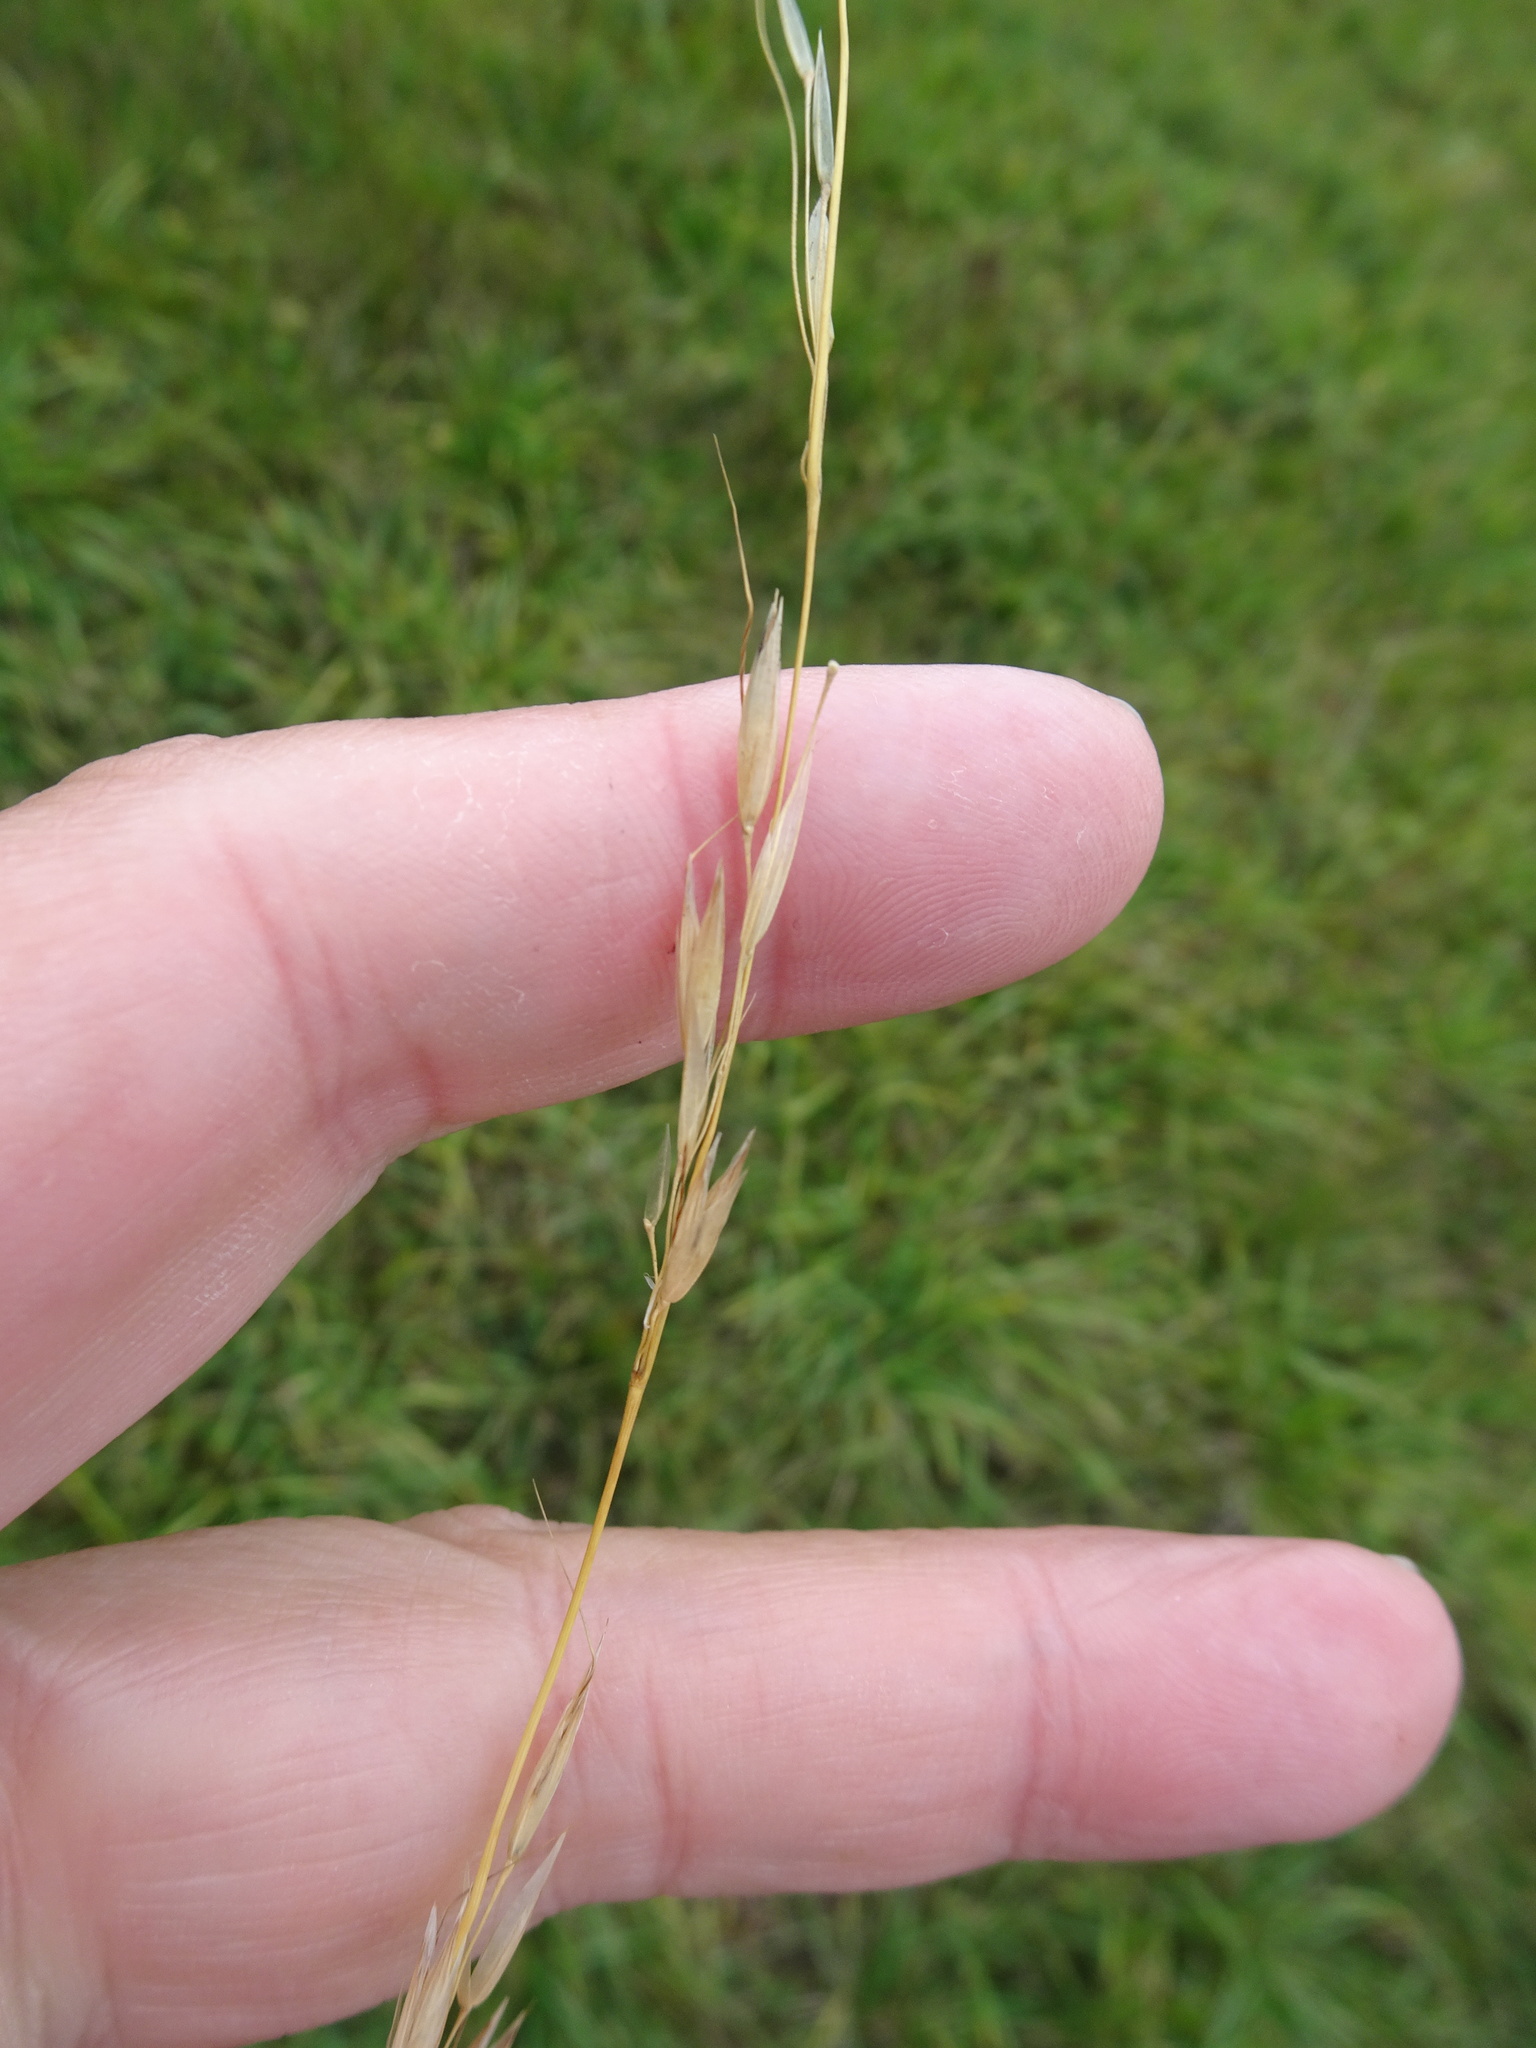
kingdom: Plantae
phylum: Tracheophyta
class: Liliopsida
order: Poales
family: Poaceae
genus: Arrhenatherum
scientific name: Arrhenatherum elatius
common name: Tall oatgrass
